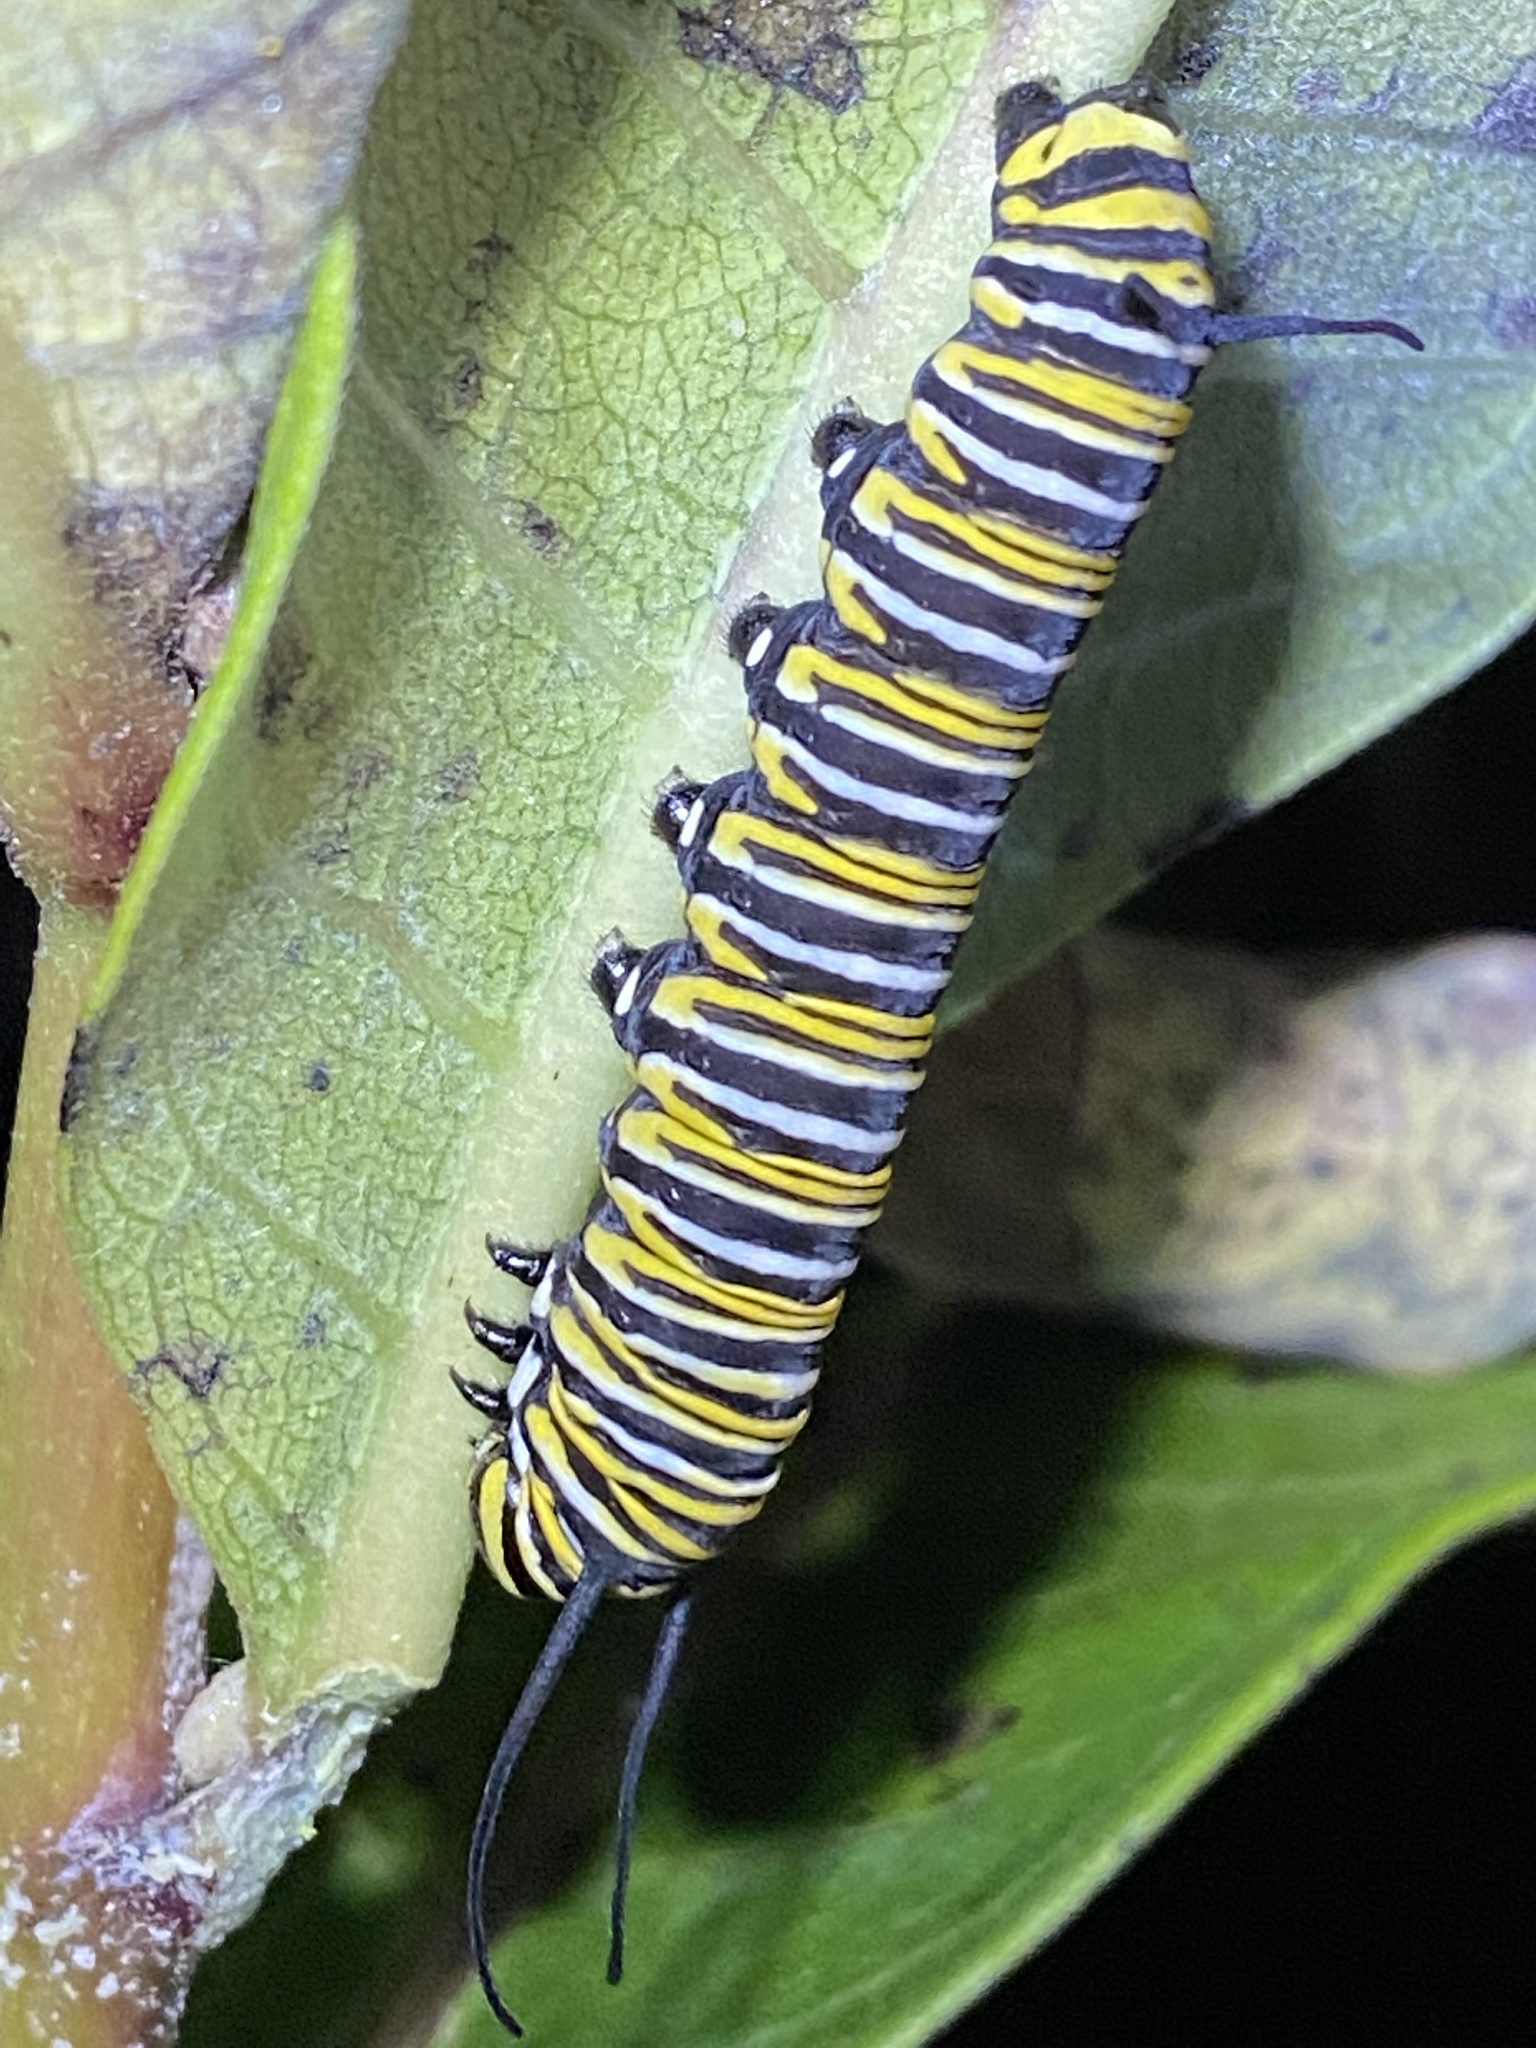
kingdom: Animalia
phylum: Arthropoda
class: Insecta
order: Lepidoptera
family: Nymphalidae
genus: Danaus
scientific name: Danaus plexippus
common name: Monarch
